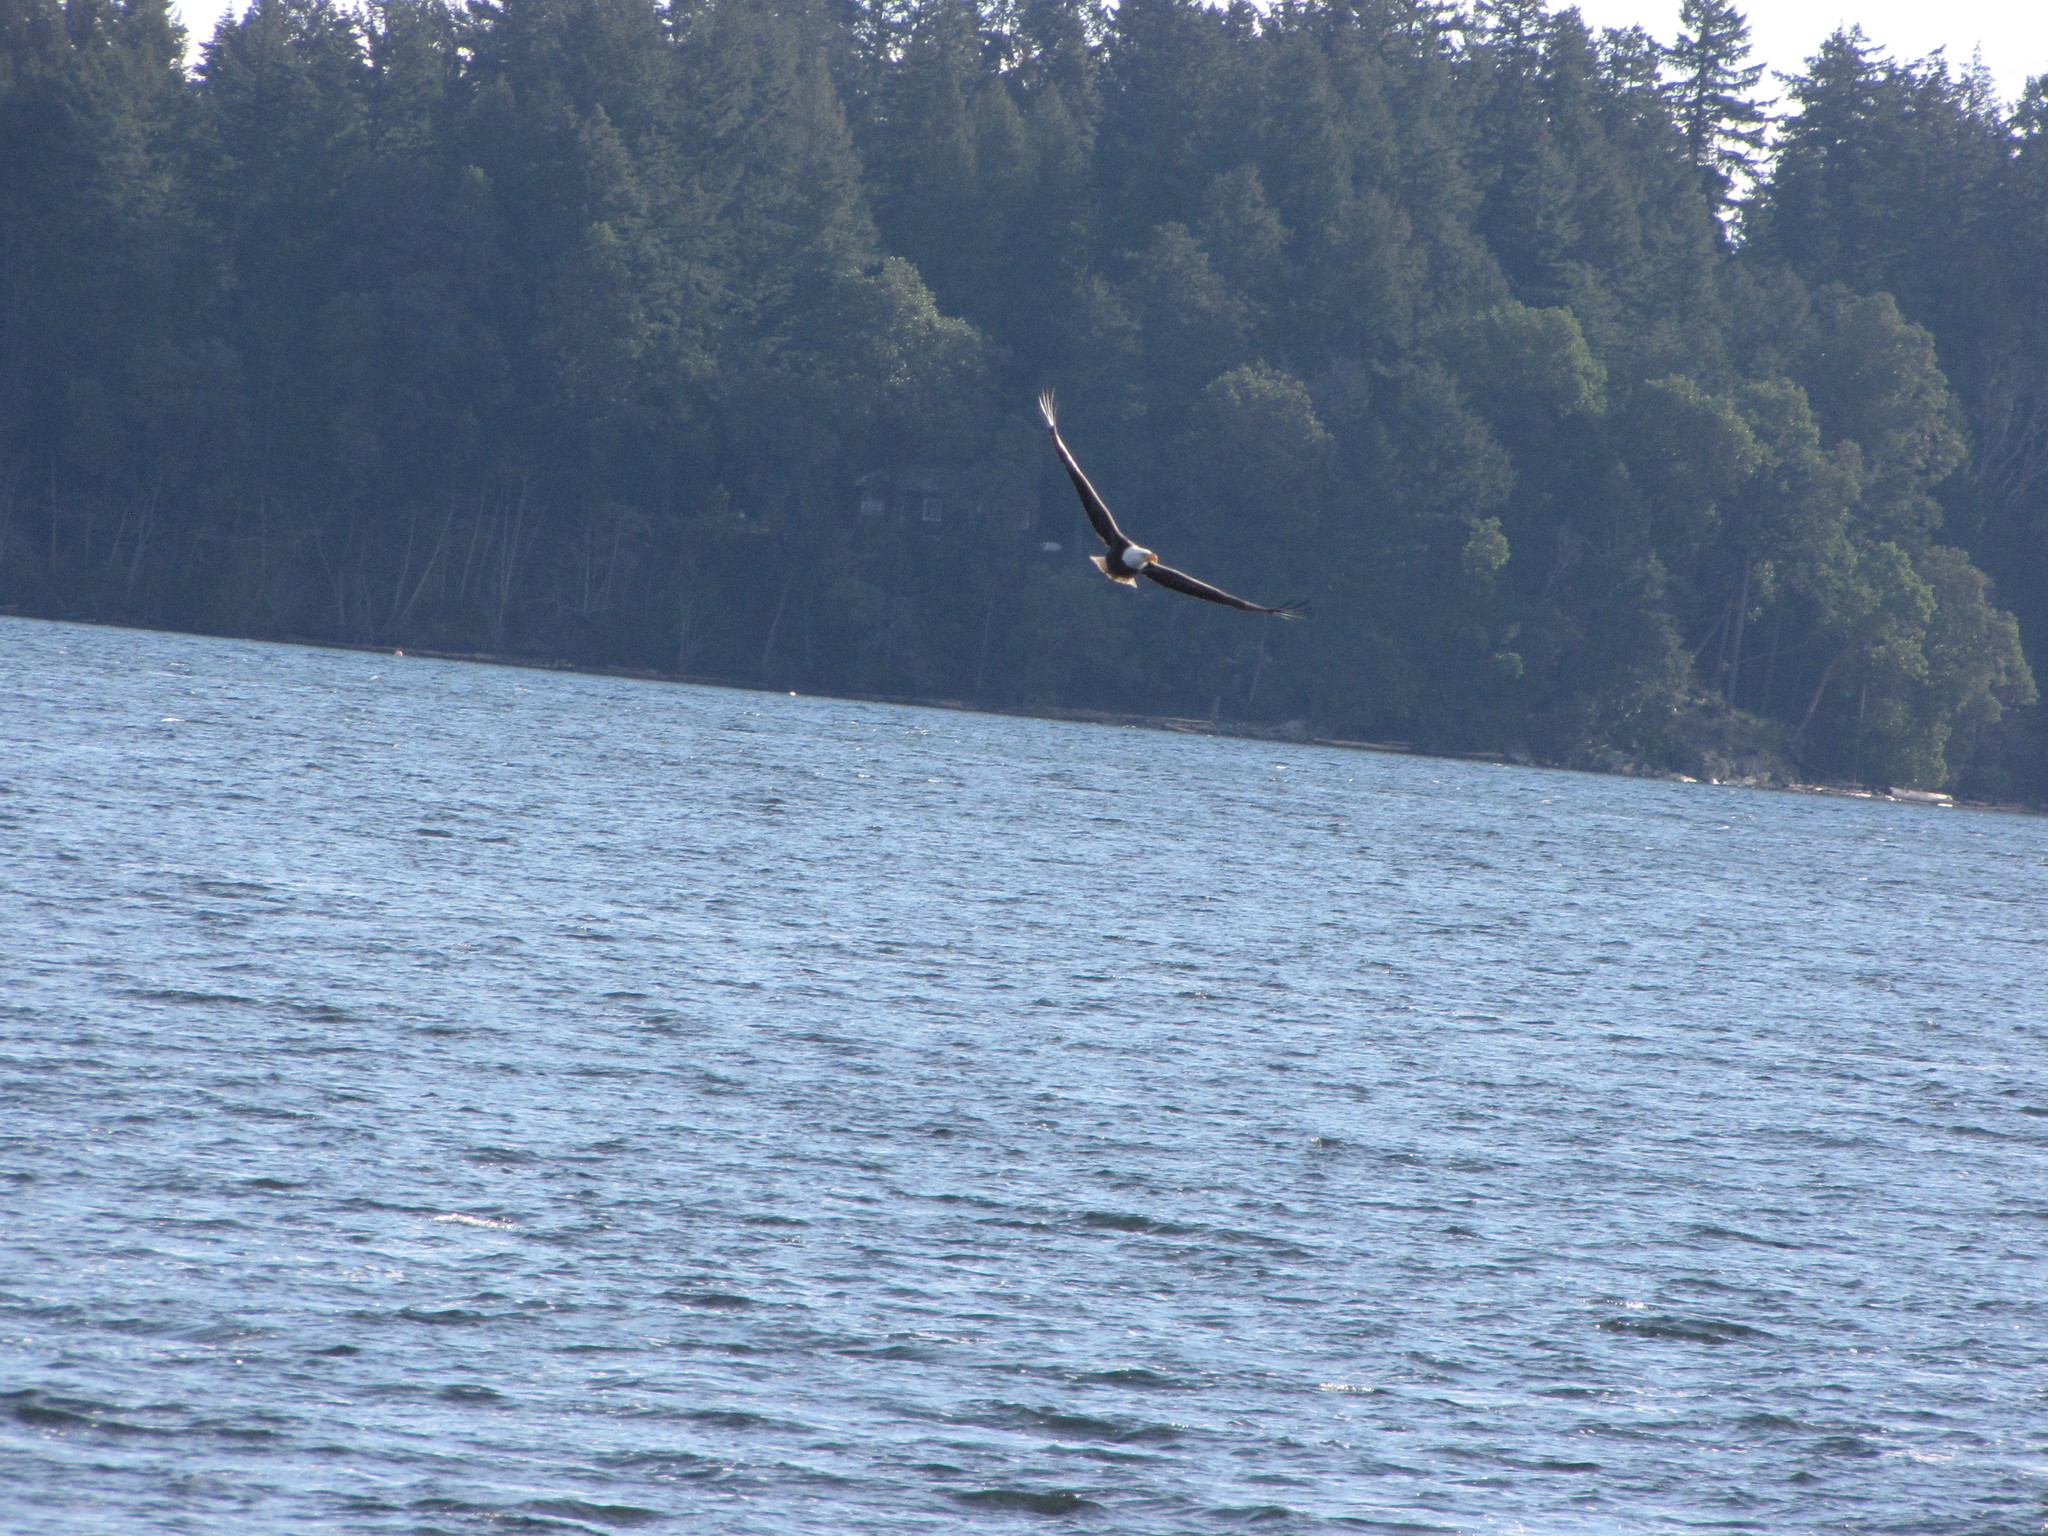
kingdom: Animalia
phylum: Chordata
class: Aves
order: Accipitriformes
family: Accipitridae
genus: Haliaeetus
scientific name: Haliaeetus leucocephalus
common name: Bald eagle
